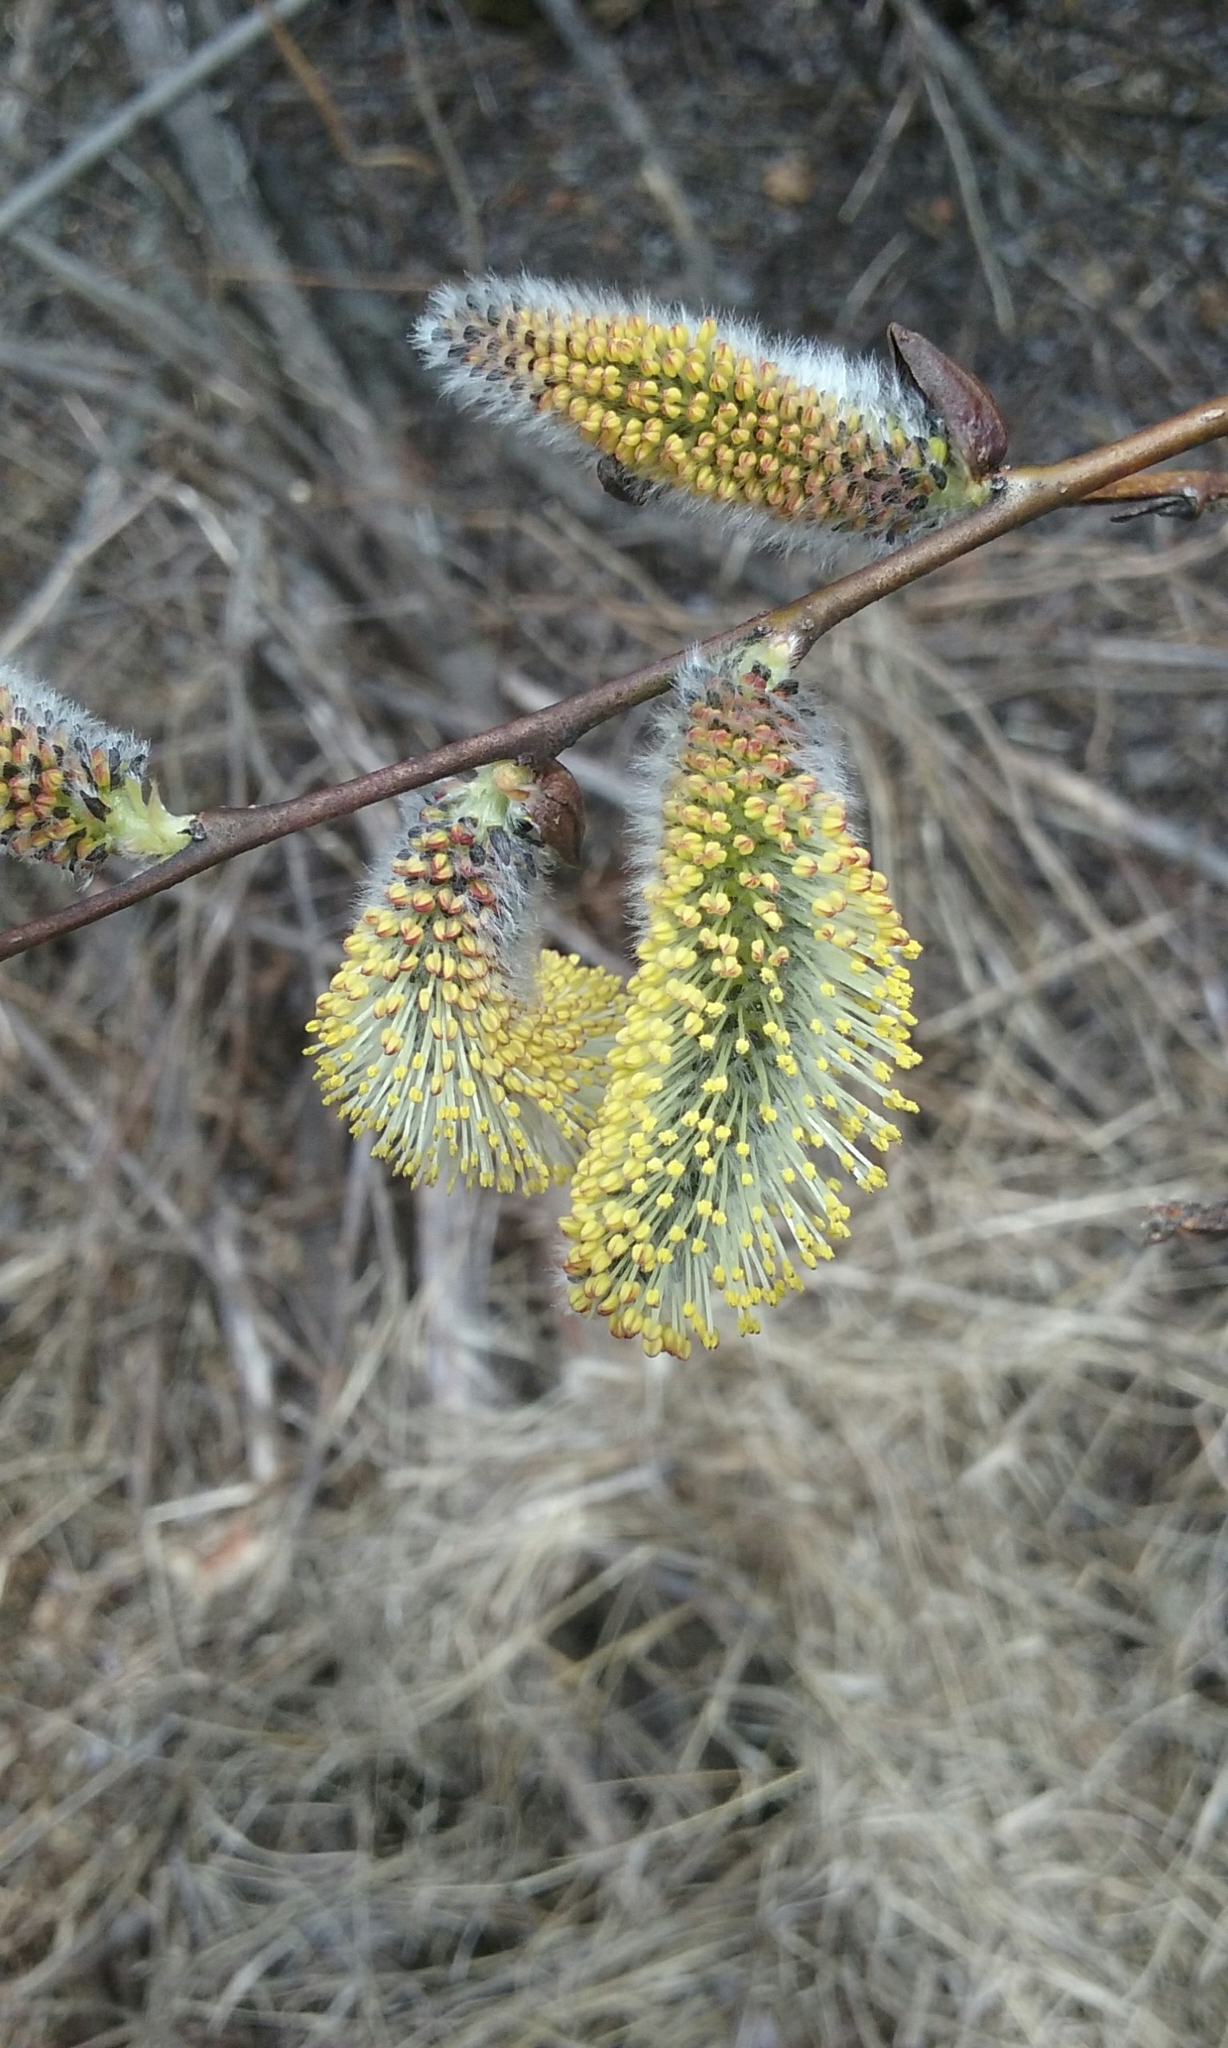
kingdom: Plantae
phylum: Tracheophyta
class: Magnoliopsida
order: Malpighiales
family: Salicaceae
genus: Salix
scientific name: Salix discolor
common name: Glaucous willow
